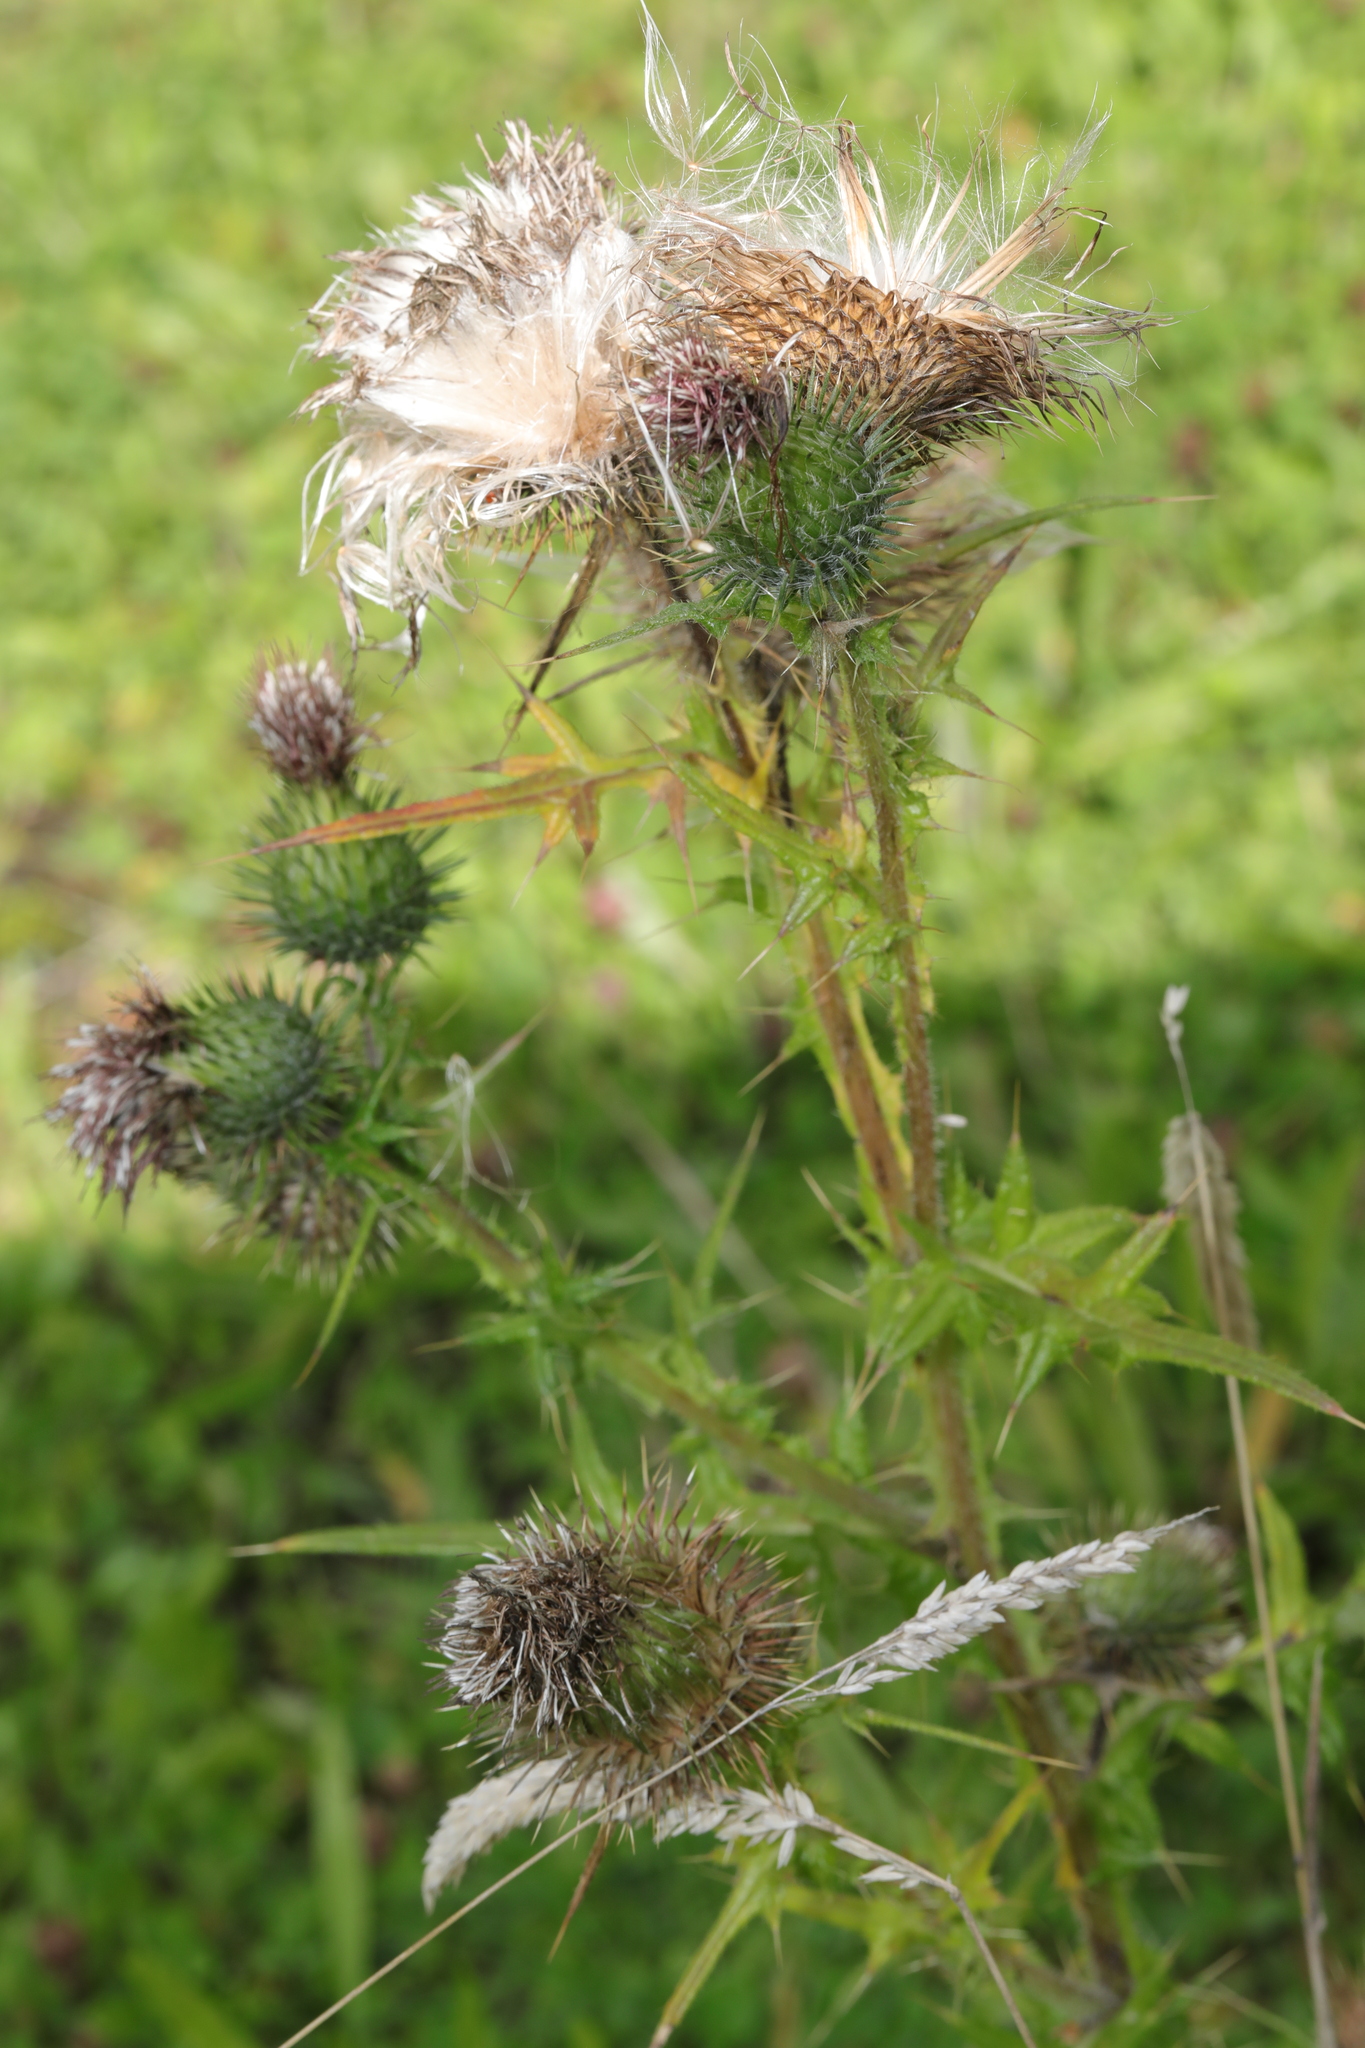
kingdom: Plantae
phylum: Tracheophyta
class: Magnoliopsida
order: Asterales
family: Asteraceae
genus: Cirsium
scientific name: Cirsium vulgare
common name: Bull thistle
